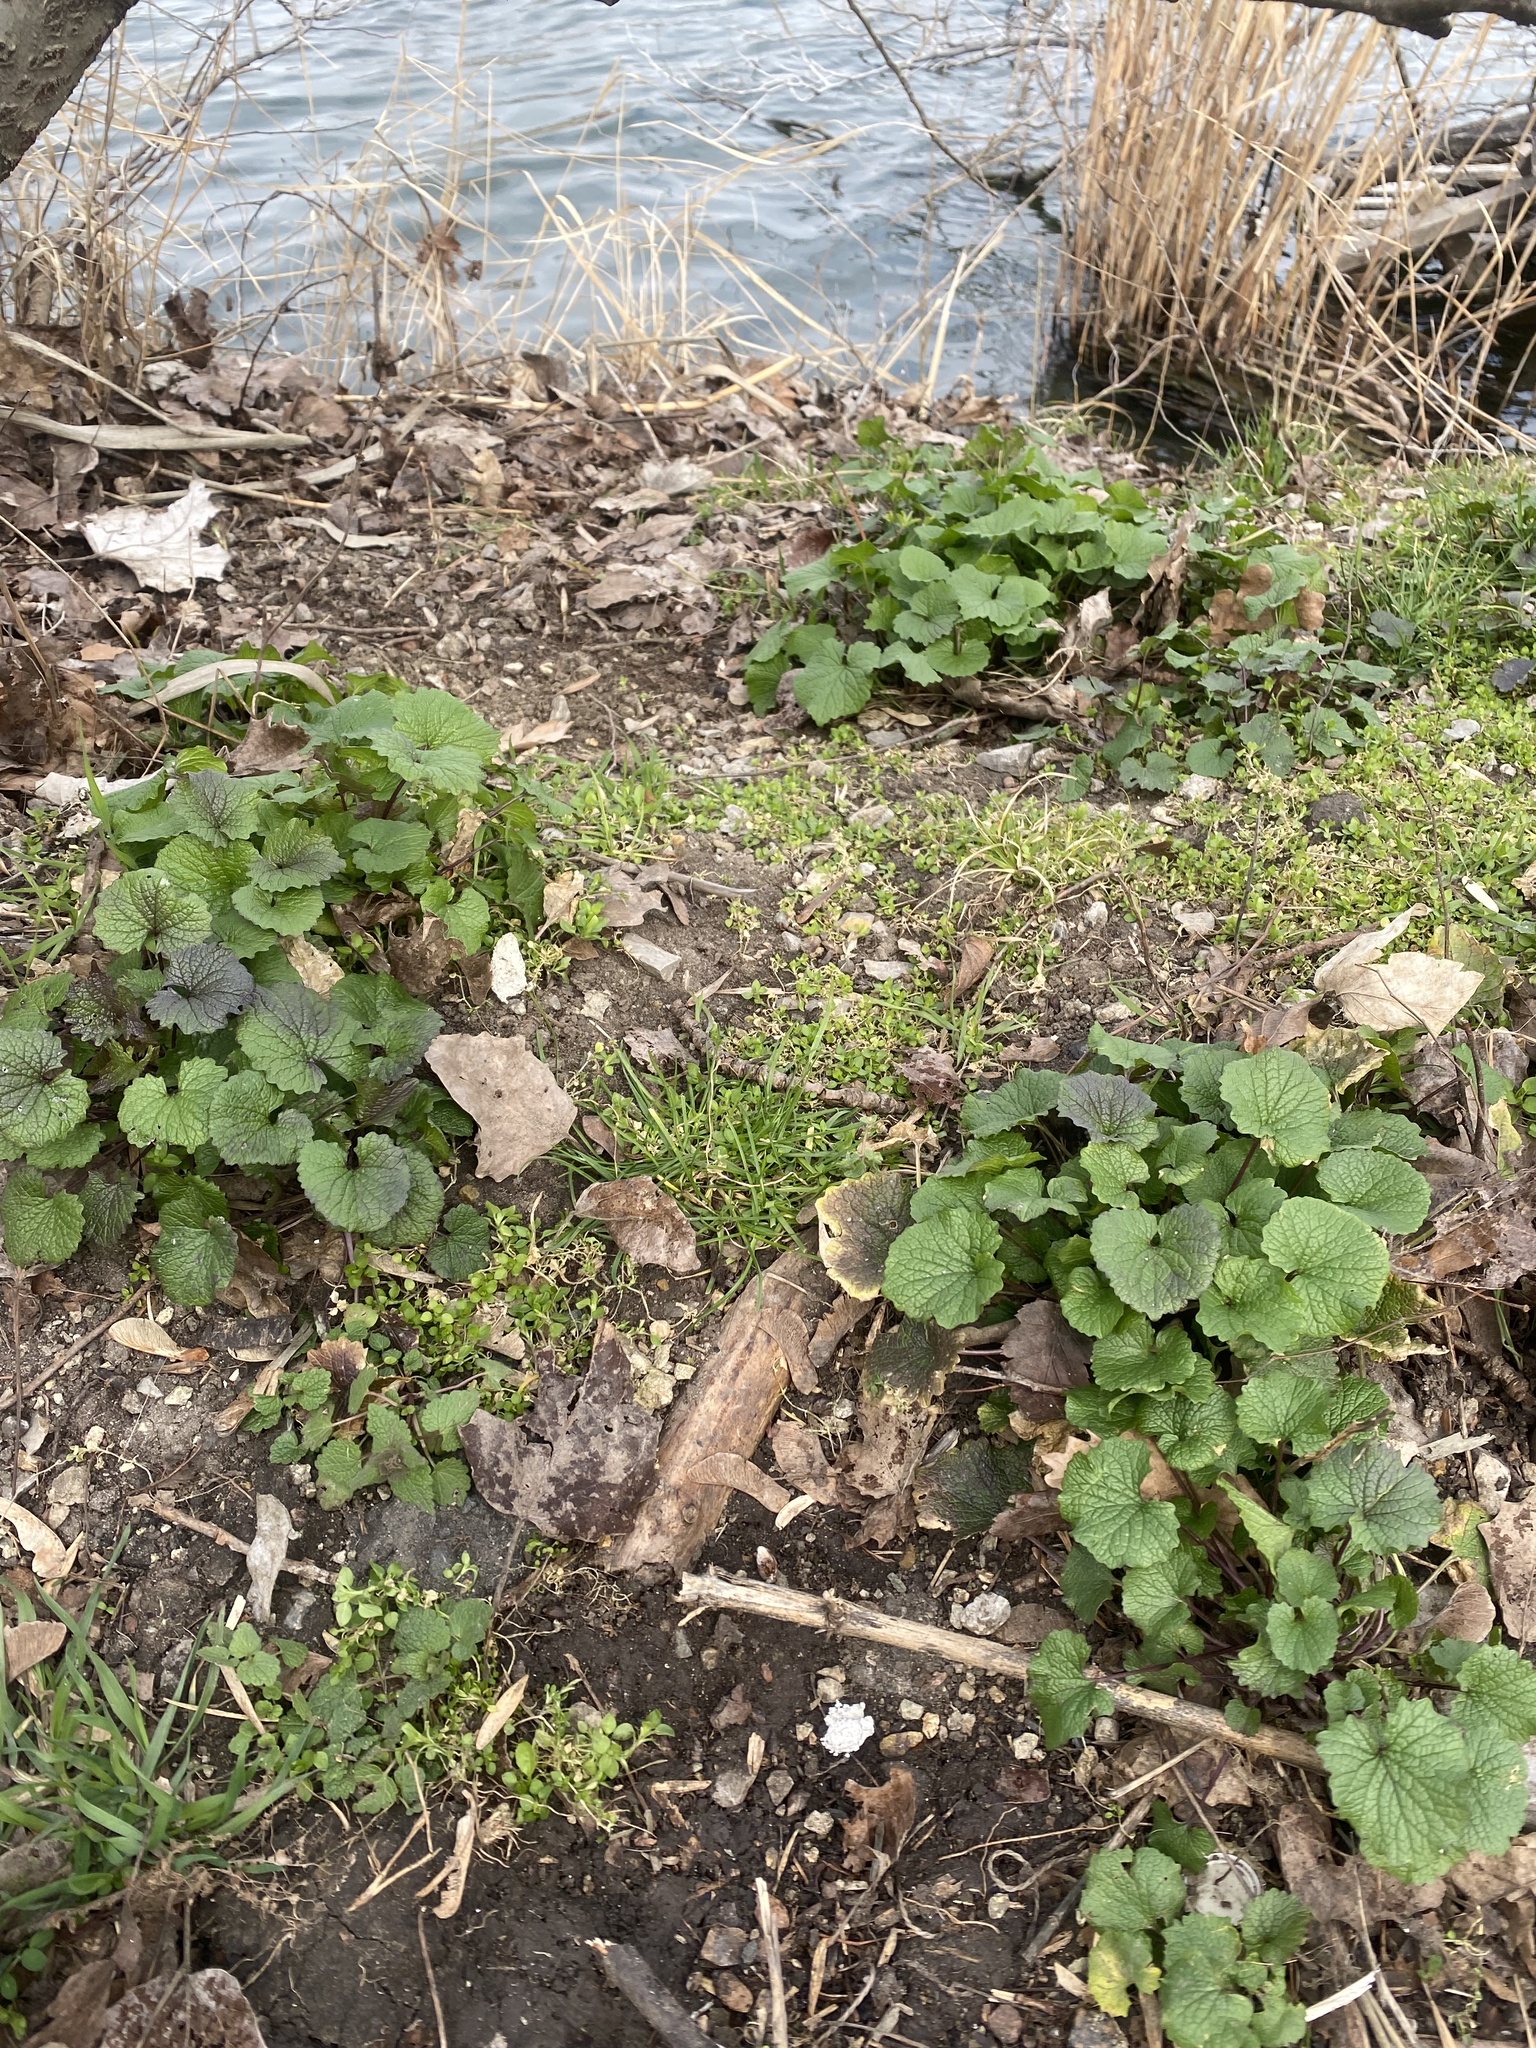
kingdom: Plantae
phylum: Tracheophyta
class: Magnoliopsida
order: Brassicales
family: Brassicaceae
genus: Alliaria
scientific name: Alliaria petiolata
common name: Garlic mustard
